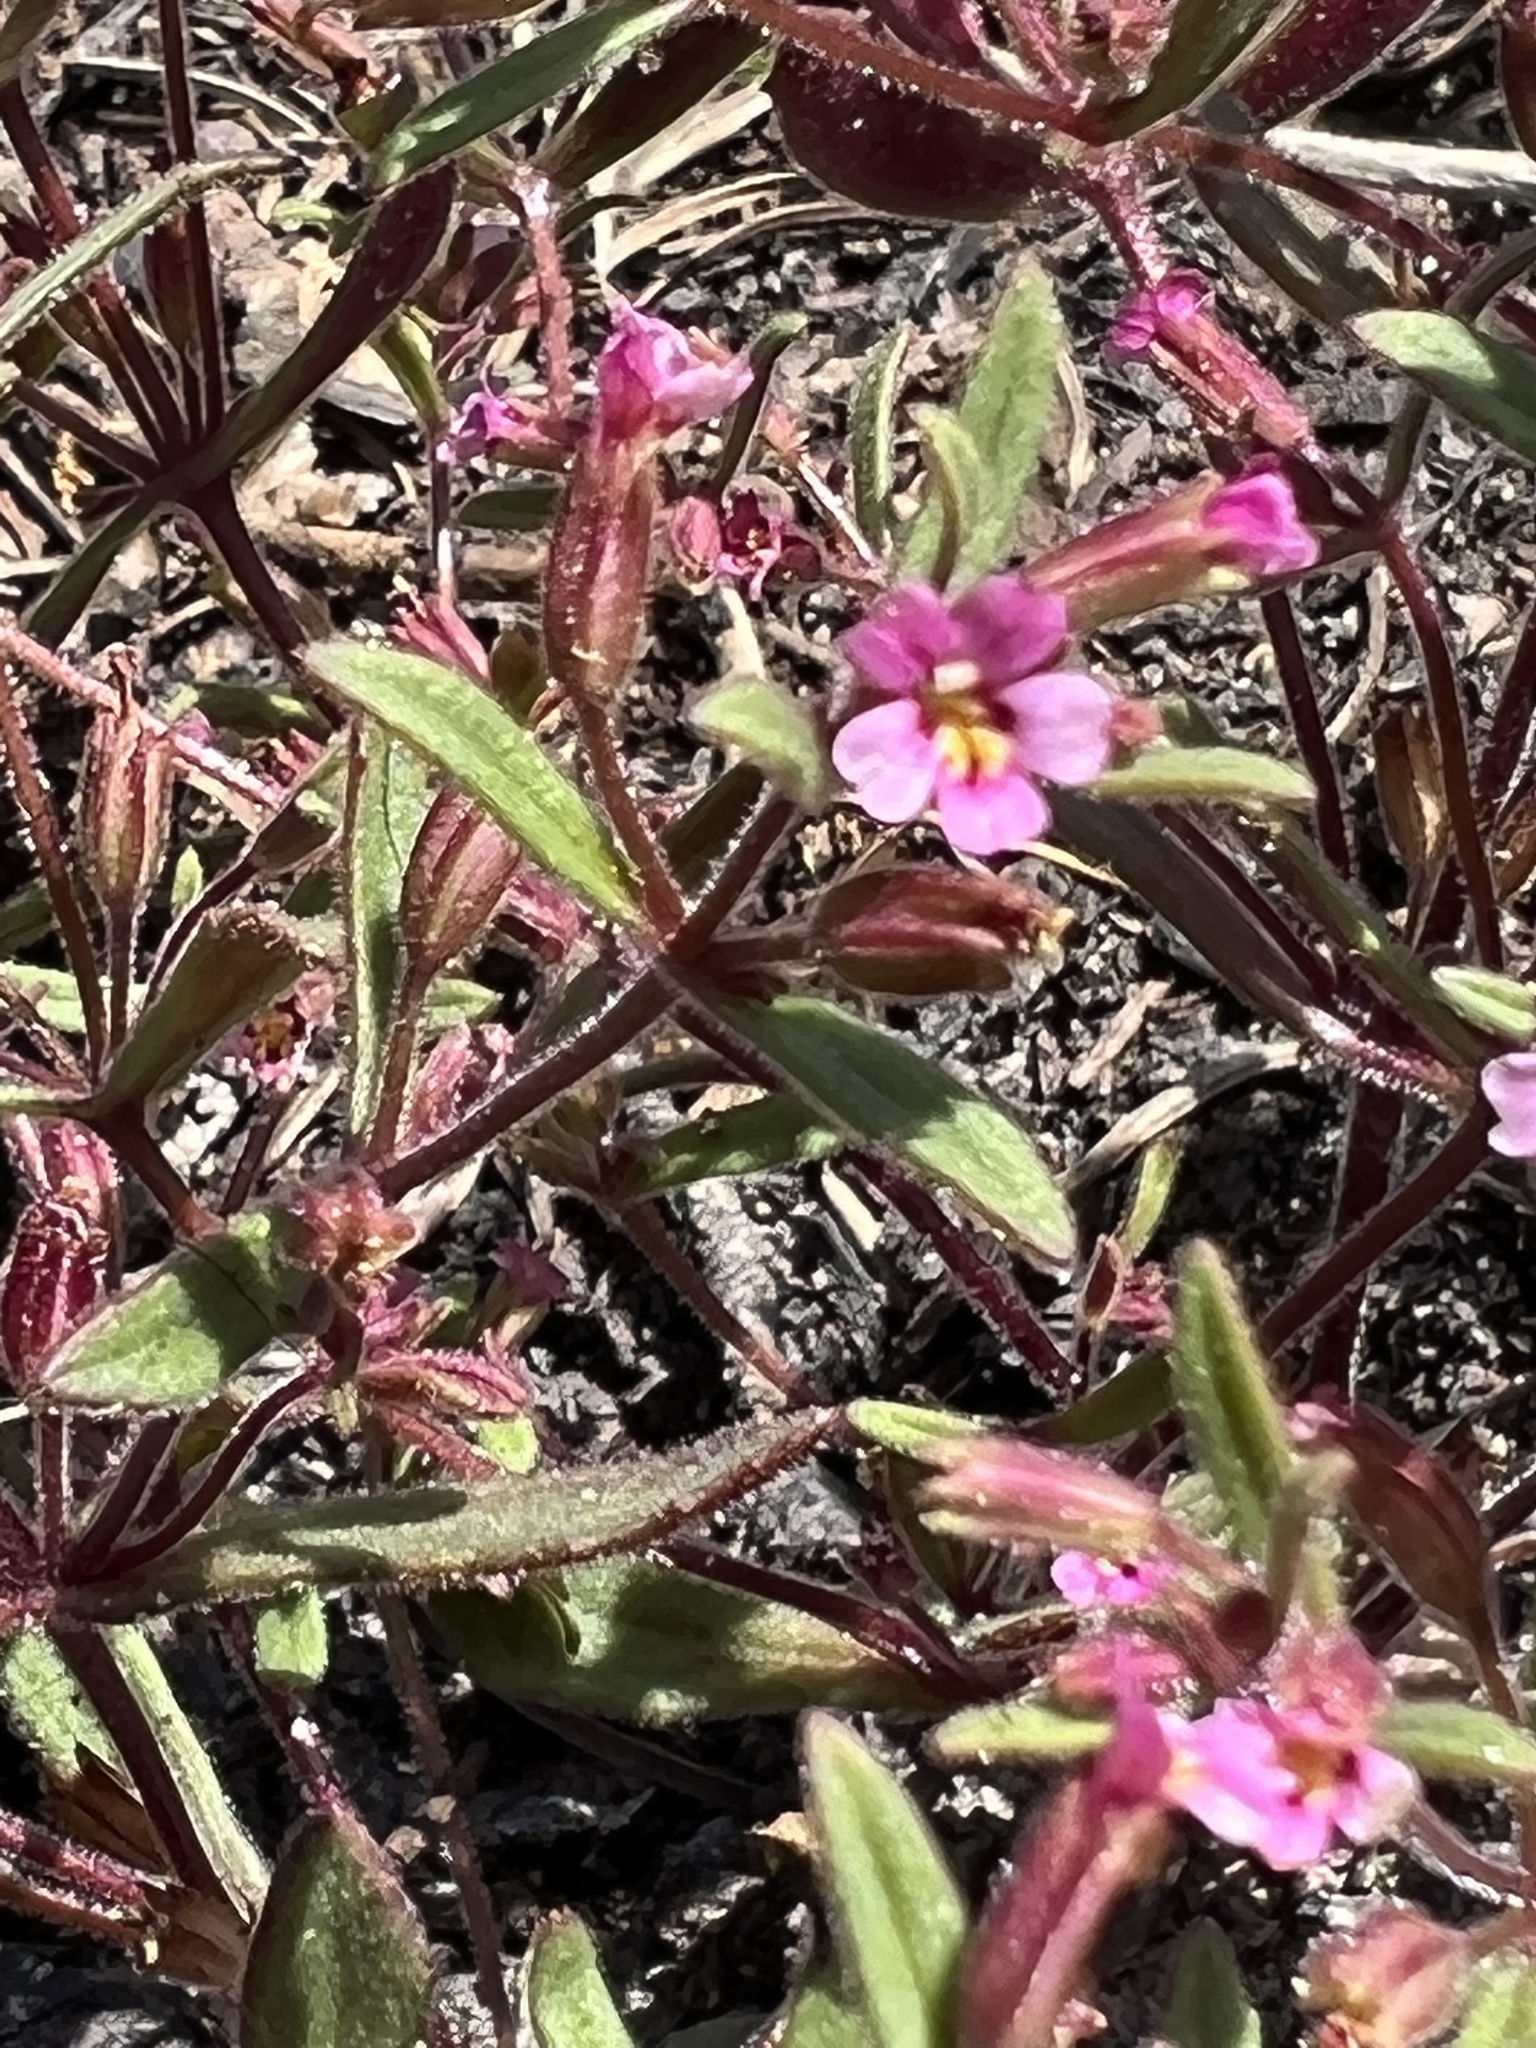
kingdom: Plantae
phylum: Tracheophyta
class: Magnoliopsida
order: Lamiales
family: Phrymaceae
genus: Erythranthe
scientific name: Erythranthe breweri
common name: Brewer's monkeyflower
